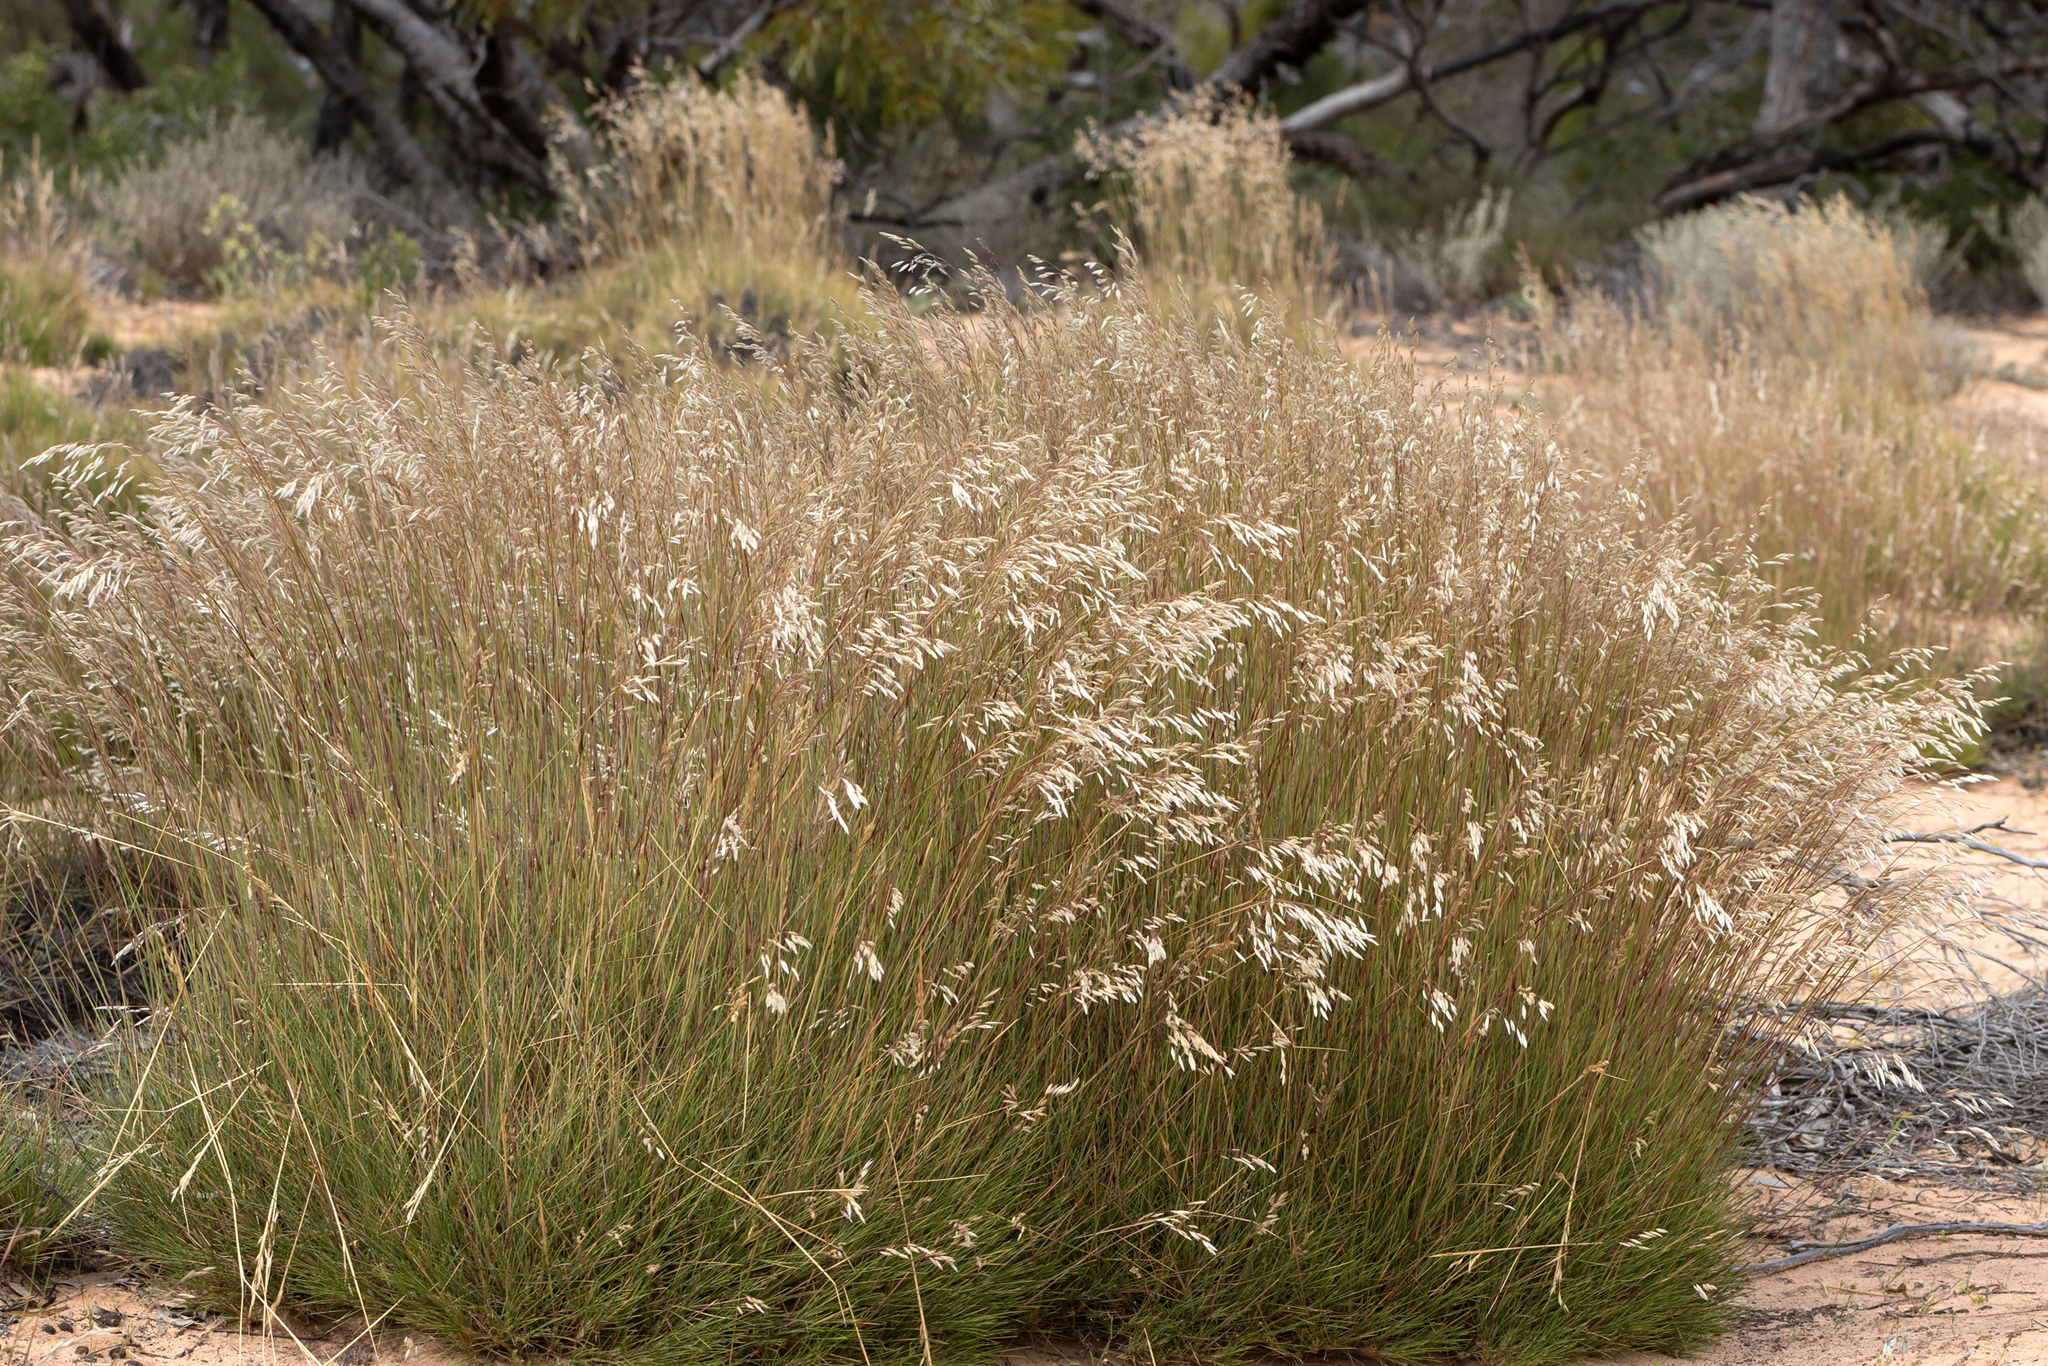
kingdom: Plantae
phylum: Tracheophyta
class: Liliopsida
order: Poales
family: Poaceae
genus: Triodia
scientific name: Triodia lanata
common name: Wooly spinifex
